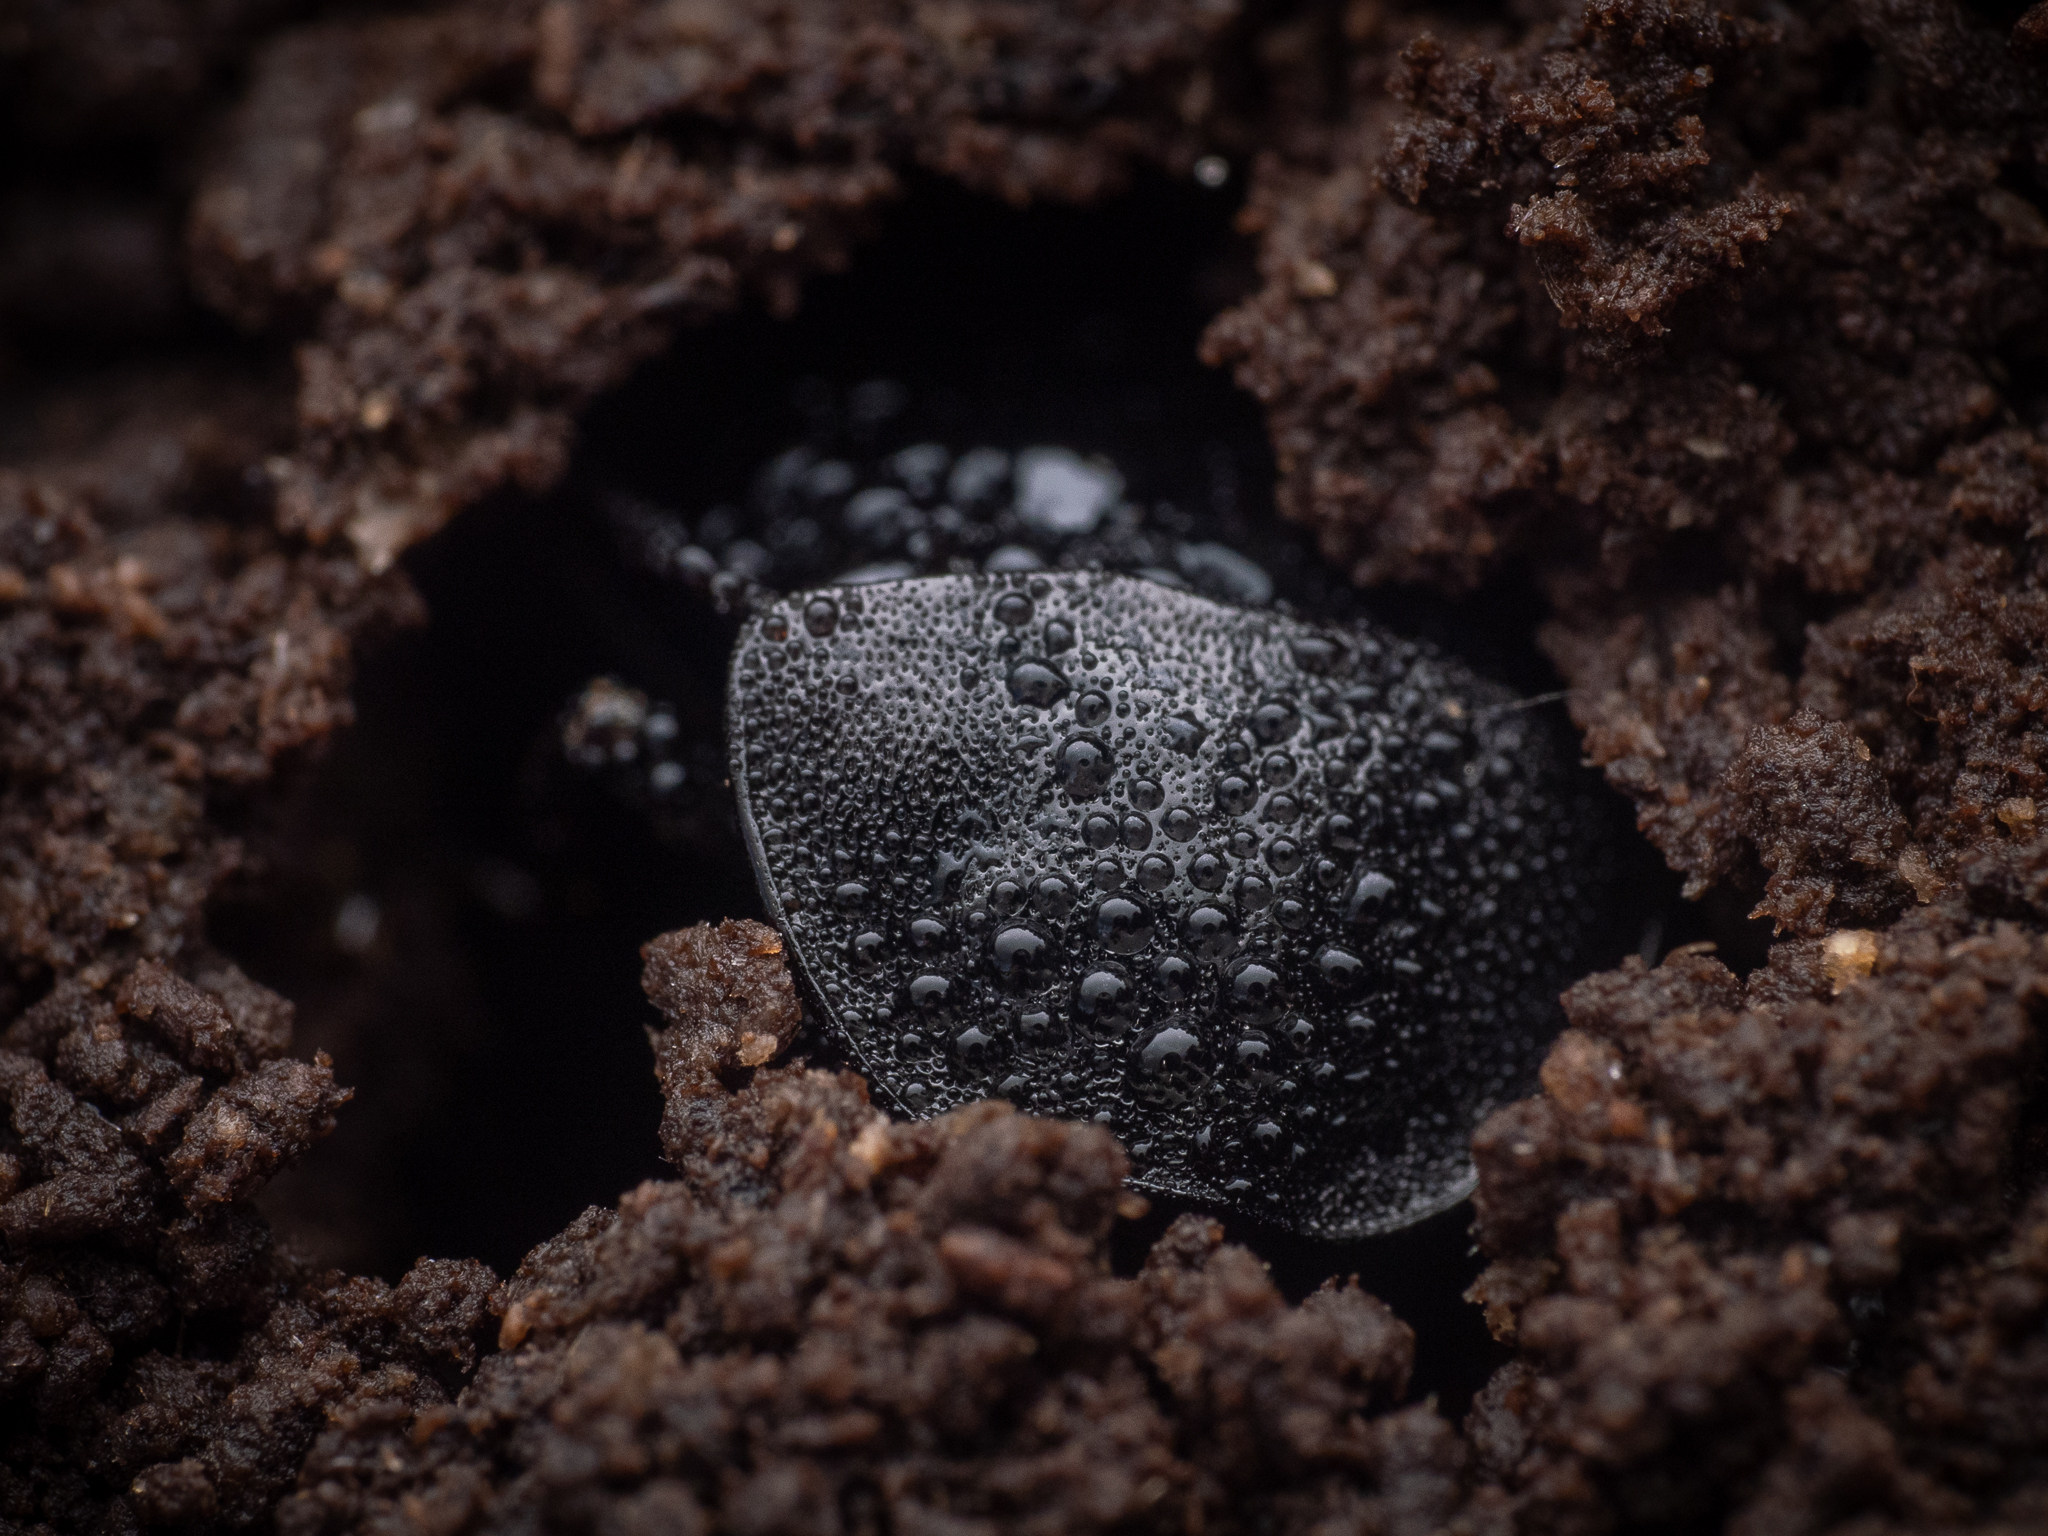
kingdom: Animalia
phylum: Arthropoda
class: Insecta
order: Coleoptera
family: Staphylinidae
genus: Silpha
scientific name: Silpha atrata
